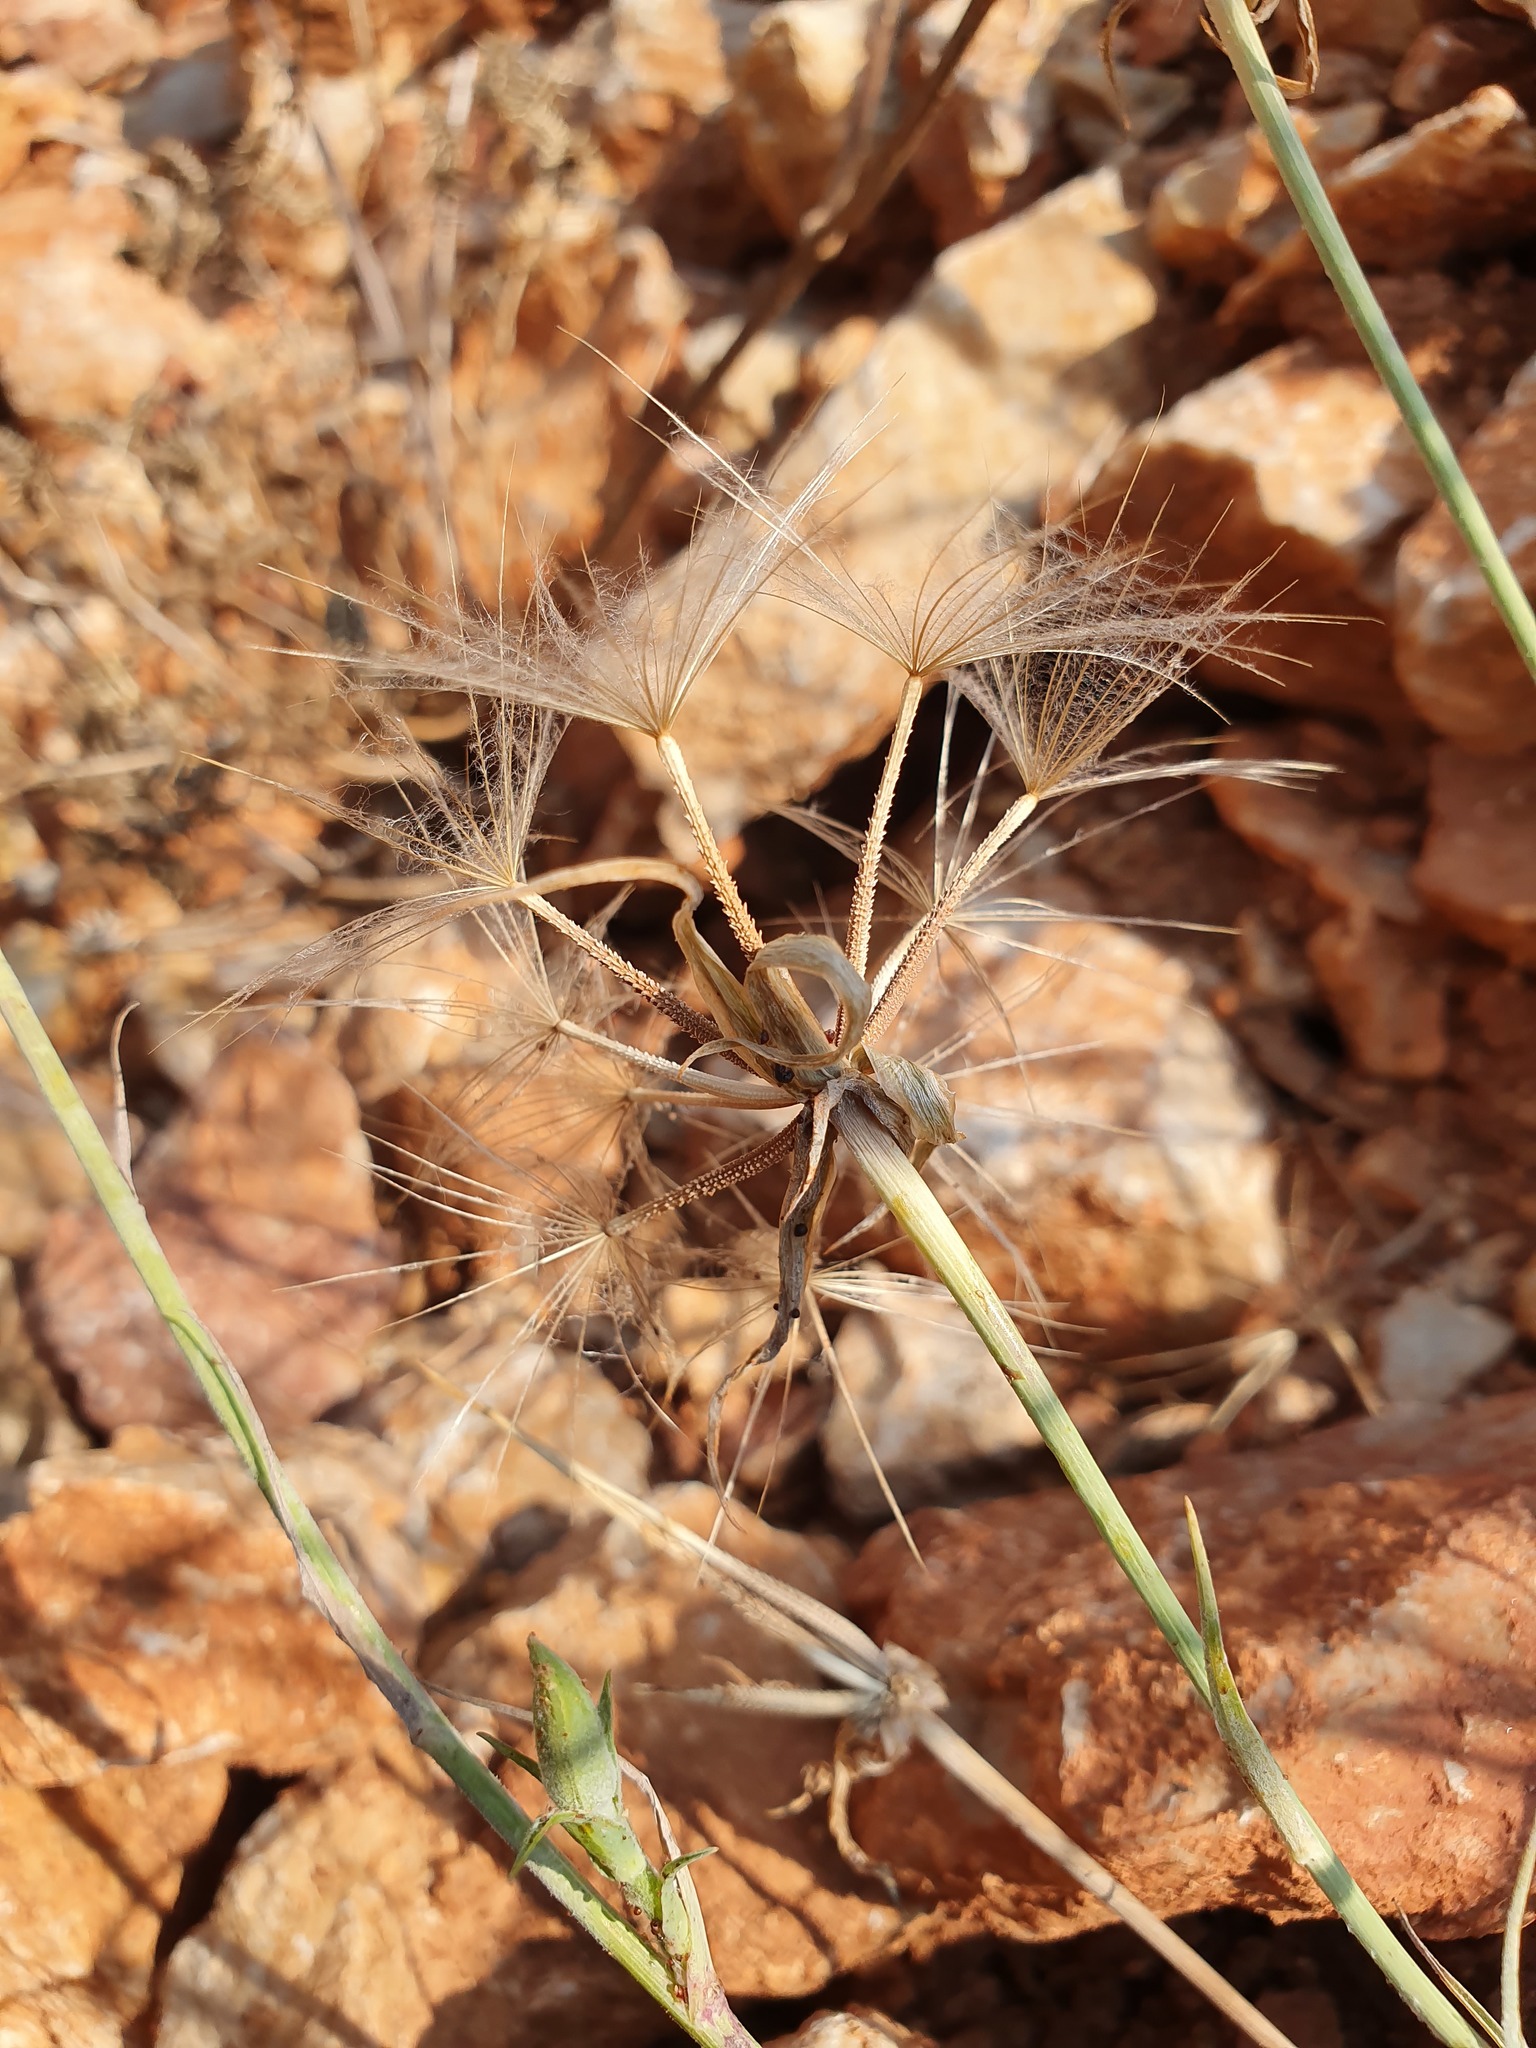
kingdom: Plantae
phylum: Tracheophyta
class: Magnoliopsida
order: Asterales
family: Asteraceae
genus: Tragopogon
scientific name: Tragopogon balcanicus
